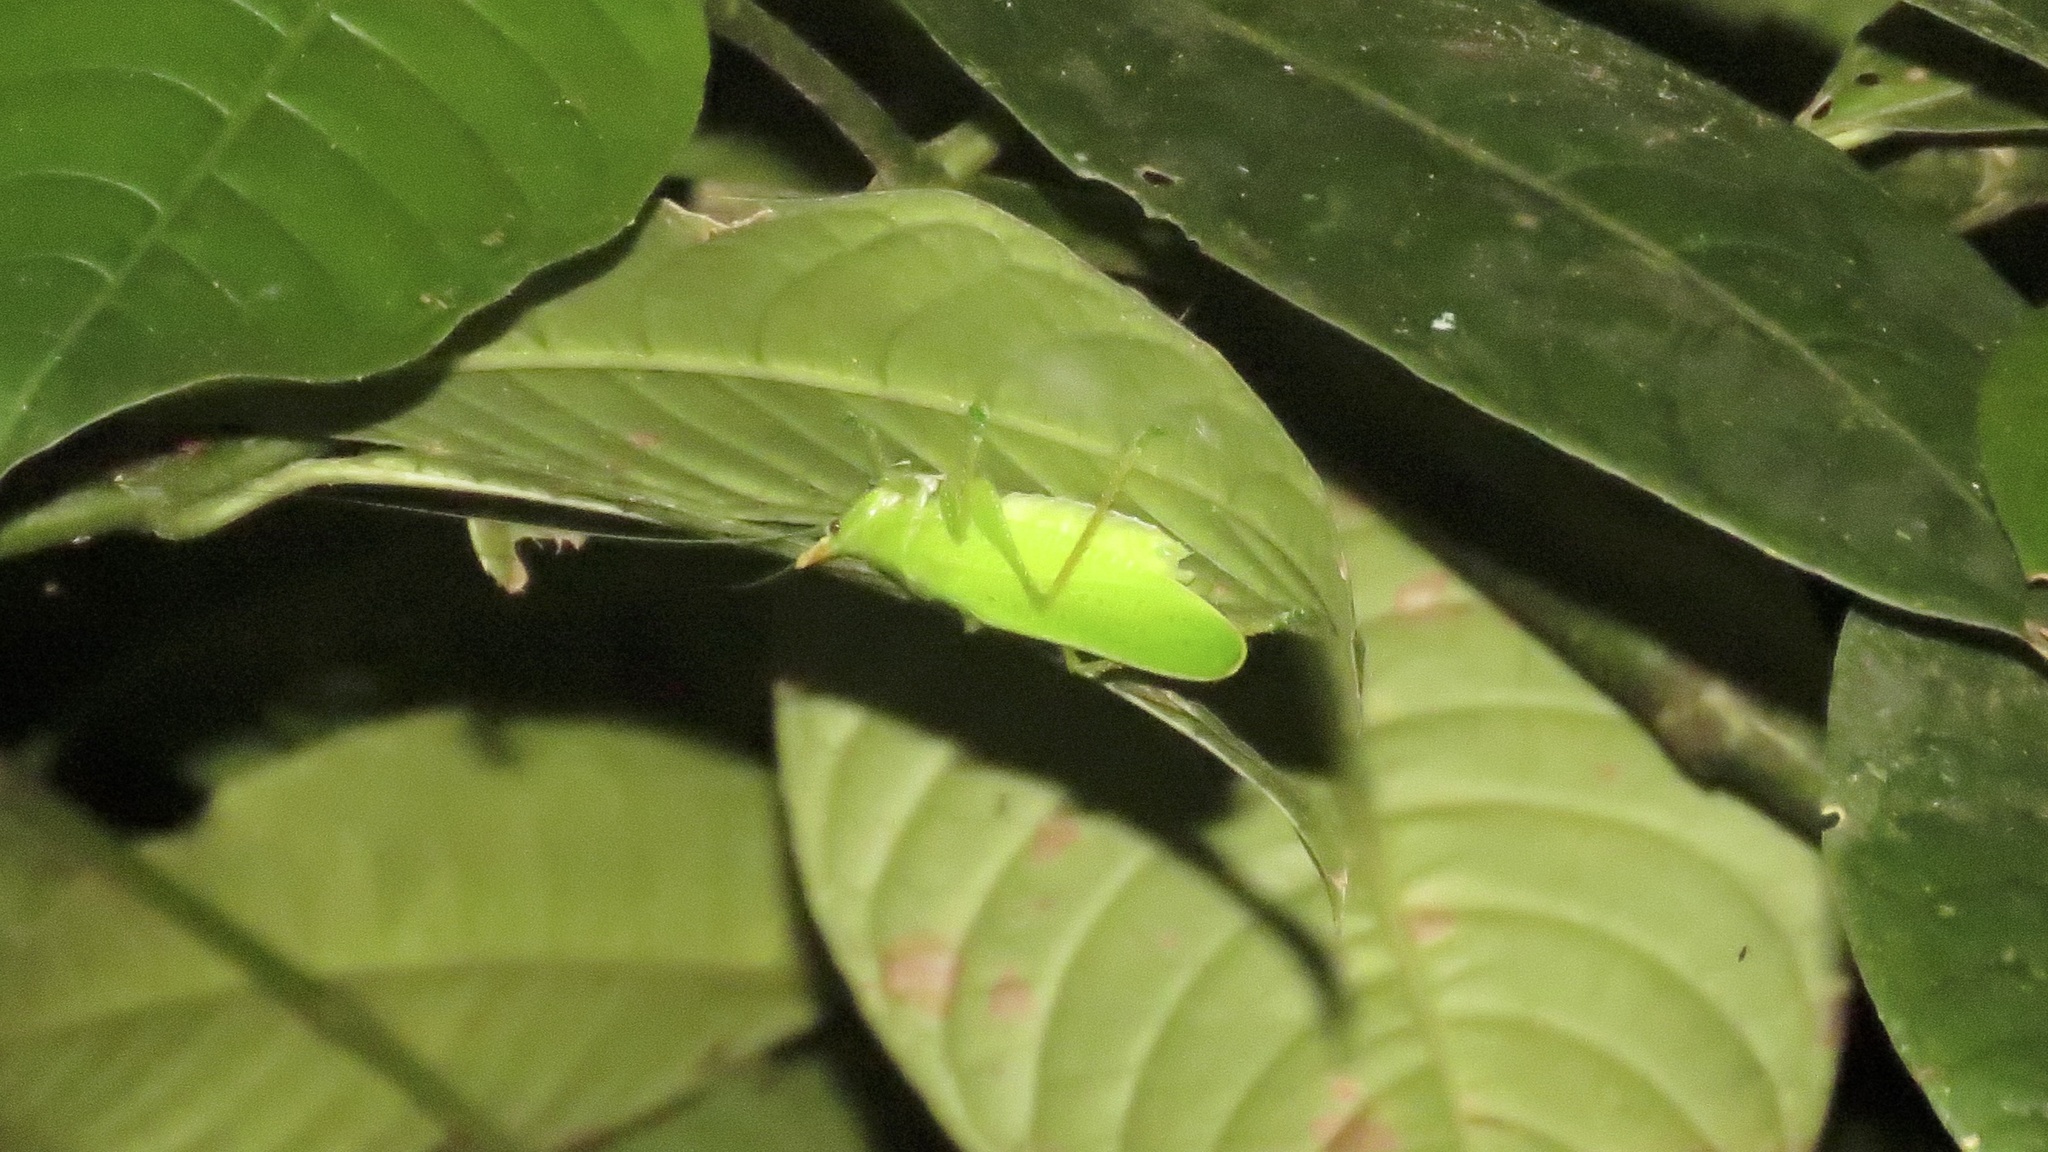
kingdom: Animalia
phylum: Arthropoda
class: Insecta
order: Orthoptera
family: Tettigoniidae
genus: Copiphora
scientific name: Copiphora cultricornis
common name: Yellow-faced spear bearer
